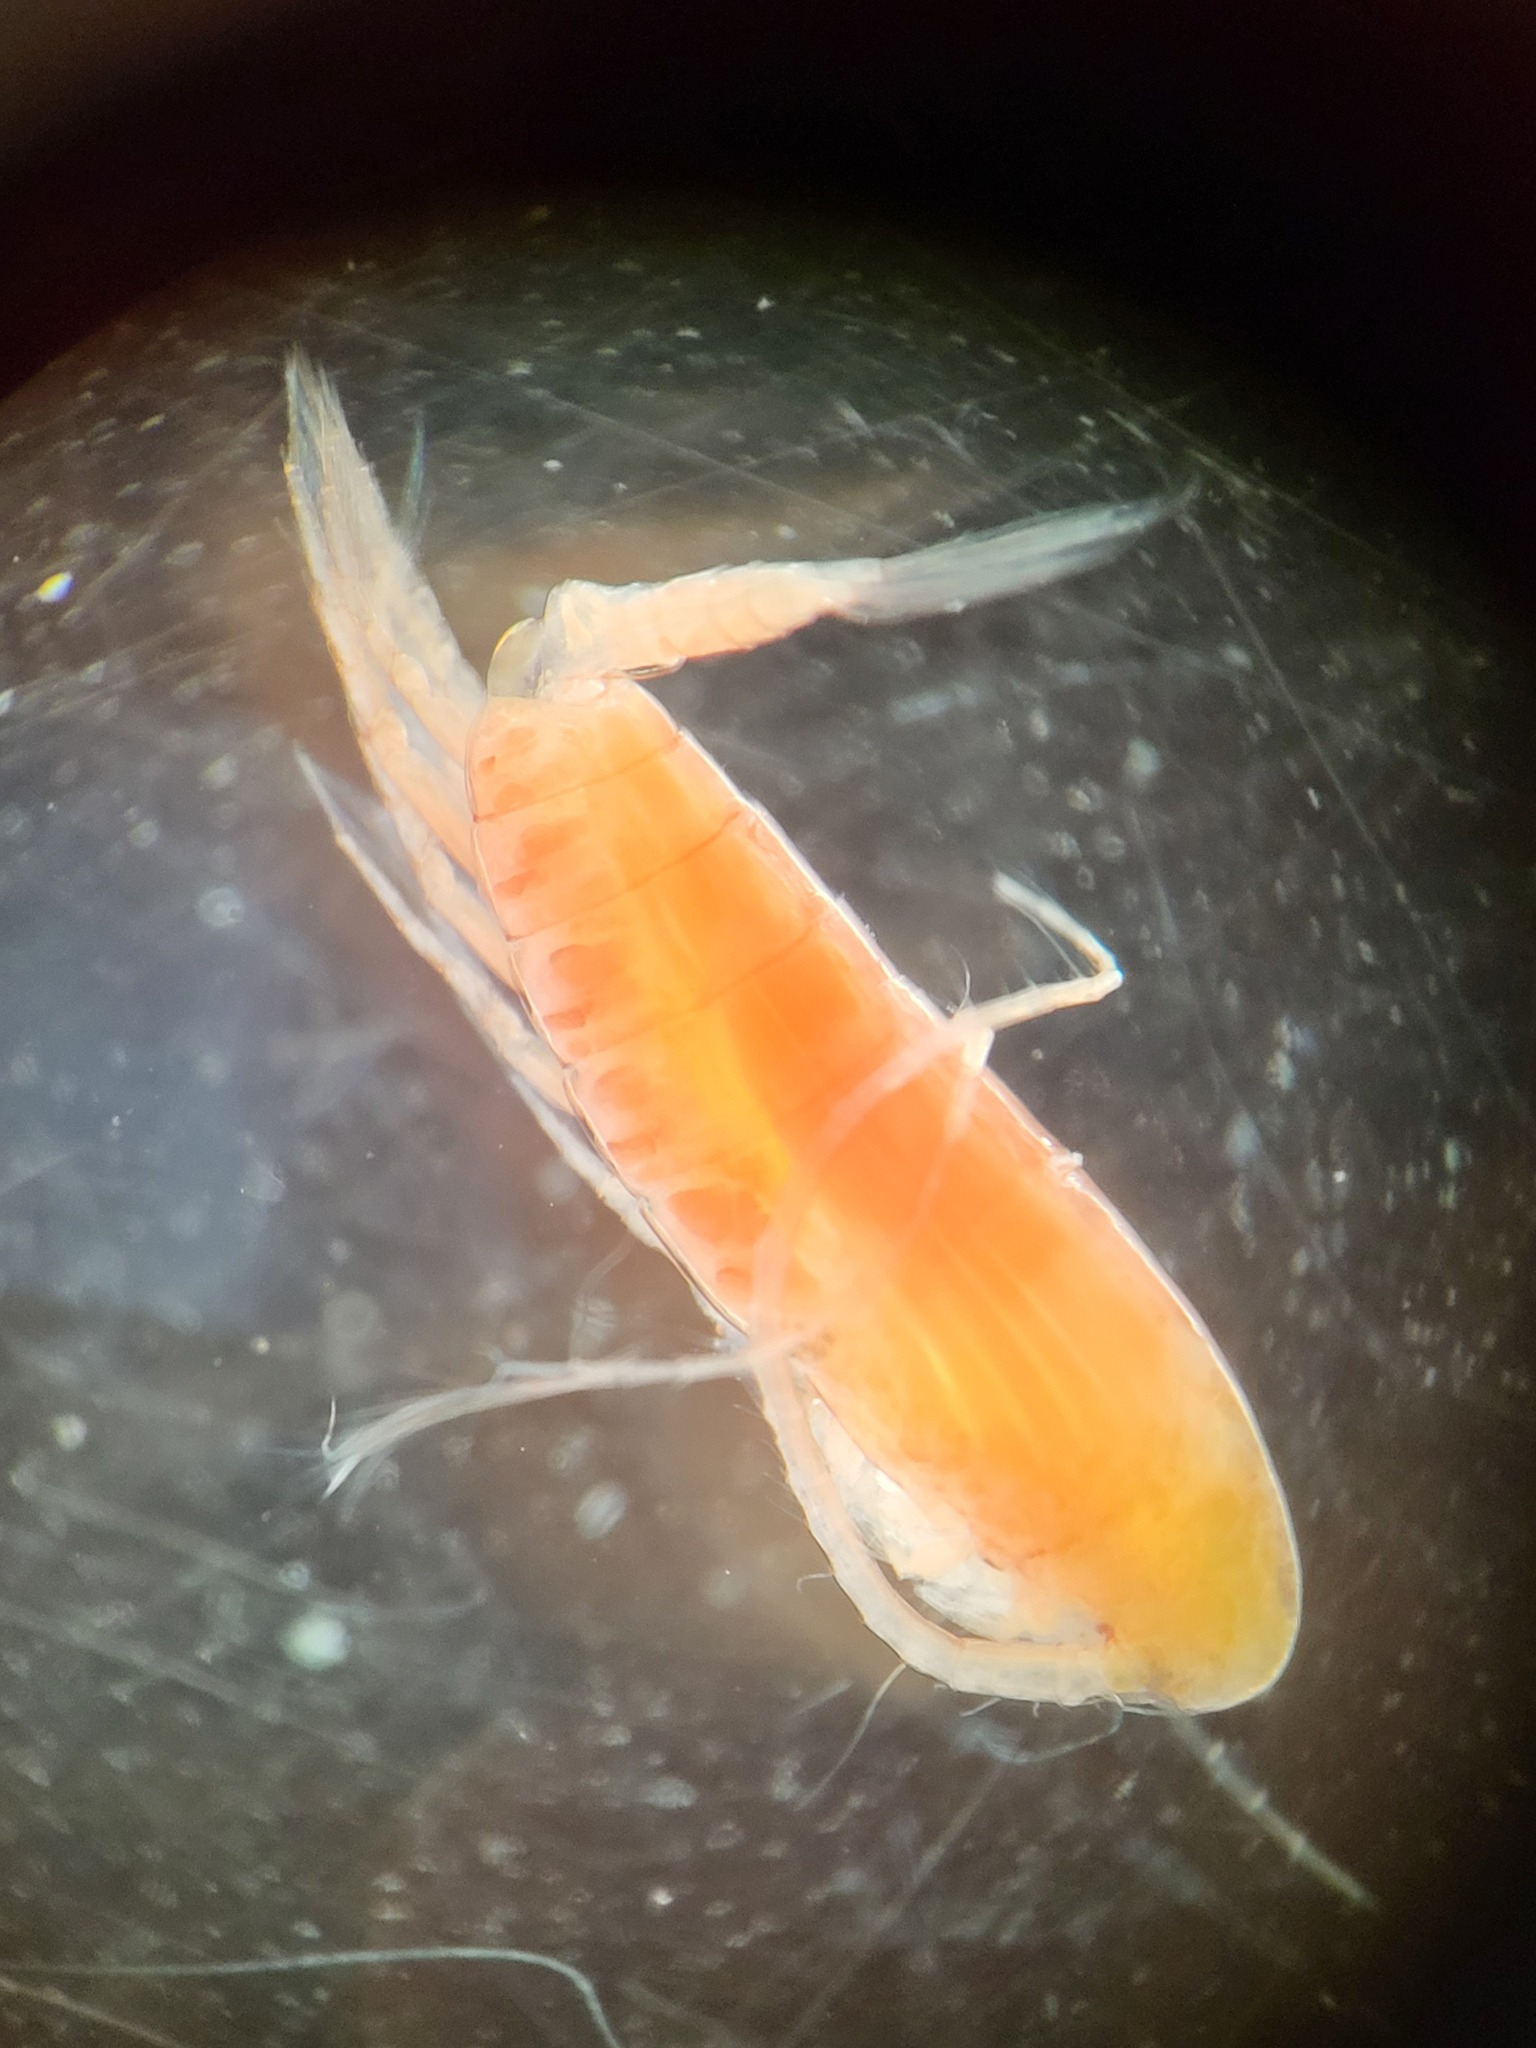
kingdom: Animalia
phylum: Arthropoda
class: Copepoda
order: Calanoida
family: Calanidae
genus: Calanus
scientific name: Calanus hyperboreus
